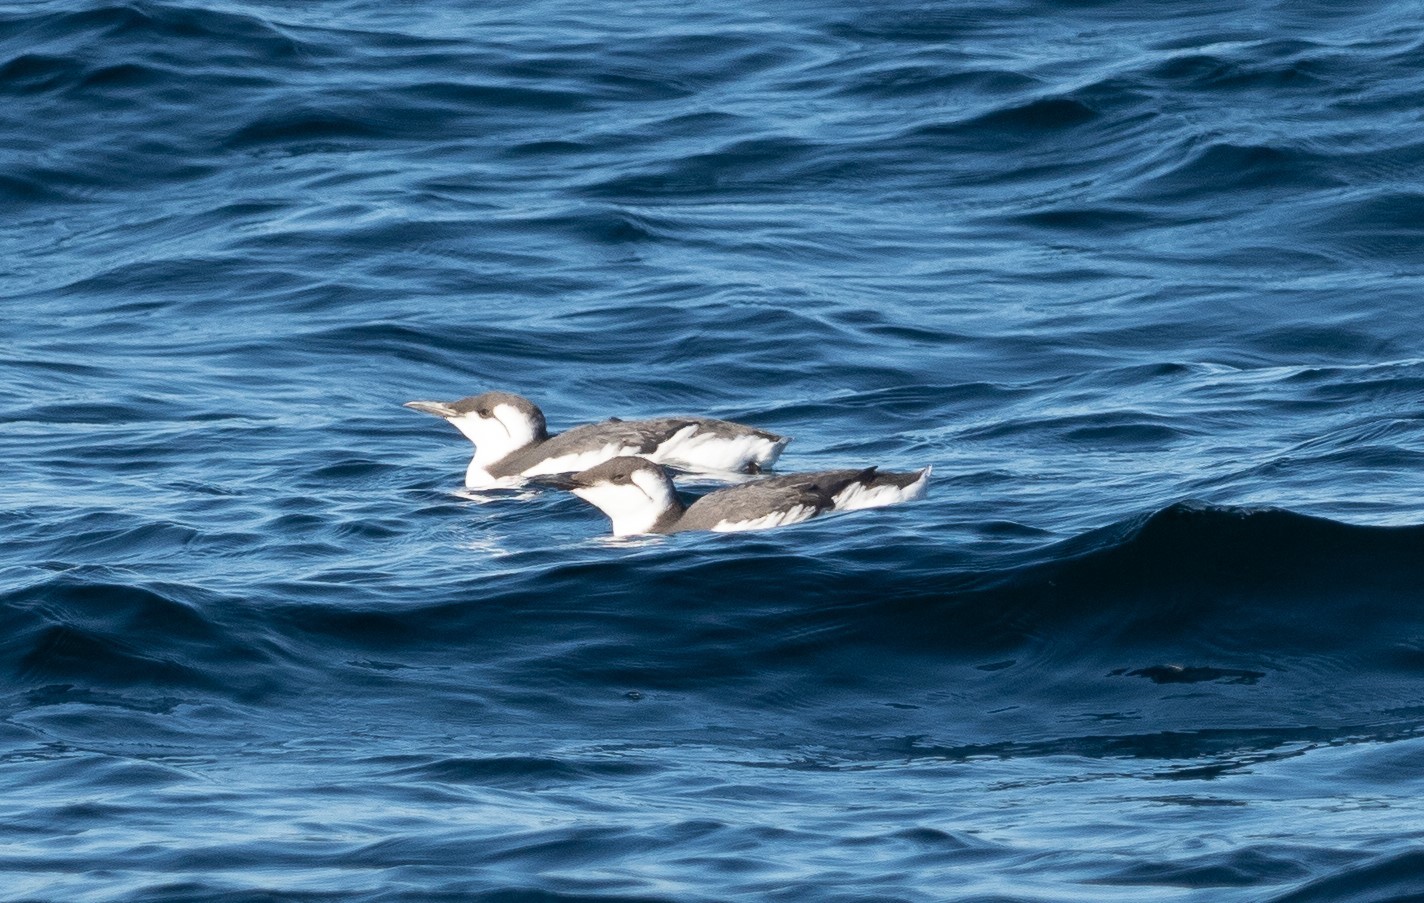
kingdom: Animalia
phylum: Chordata
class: Aves
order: Charadriiformes
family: Alcidae
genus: Uria
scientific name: Uria aalge
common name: Common murre
